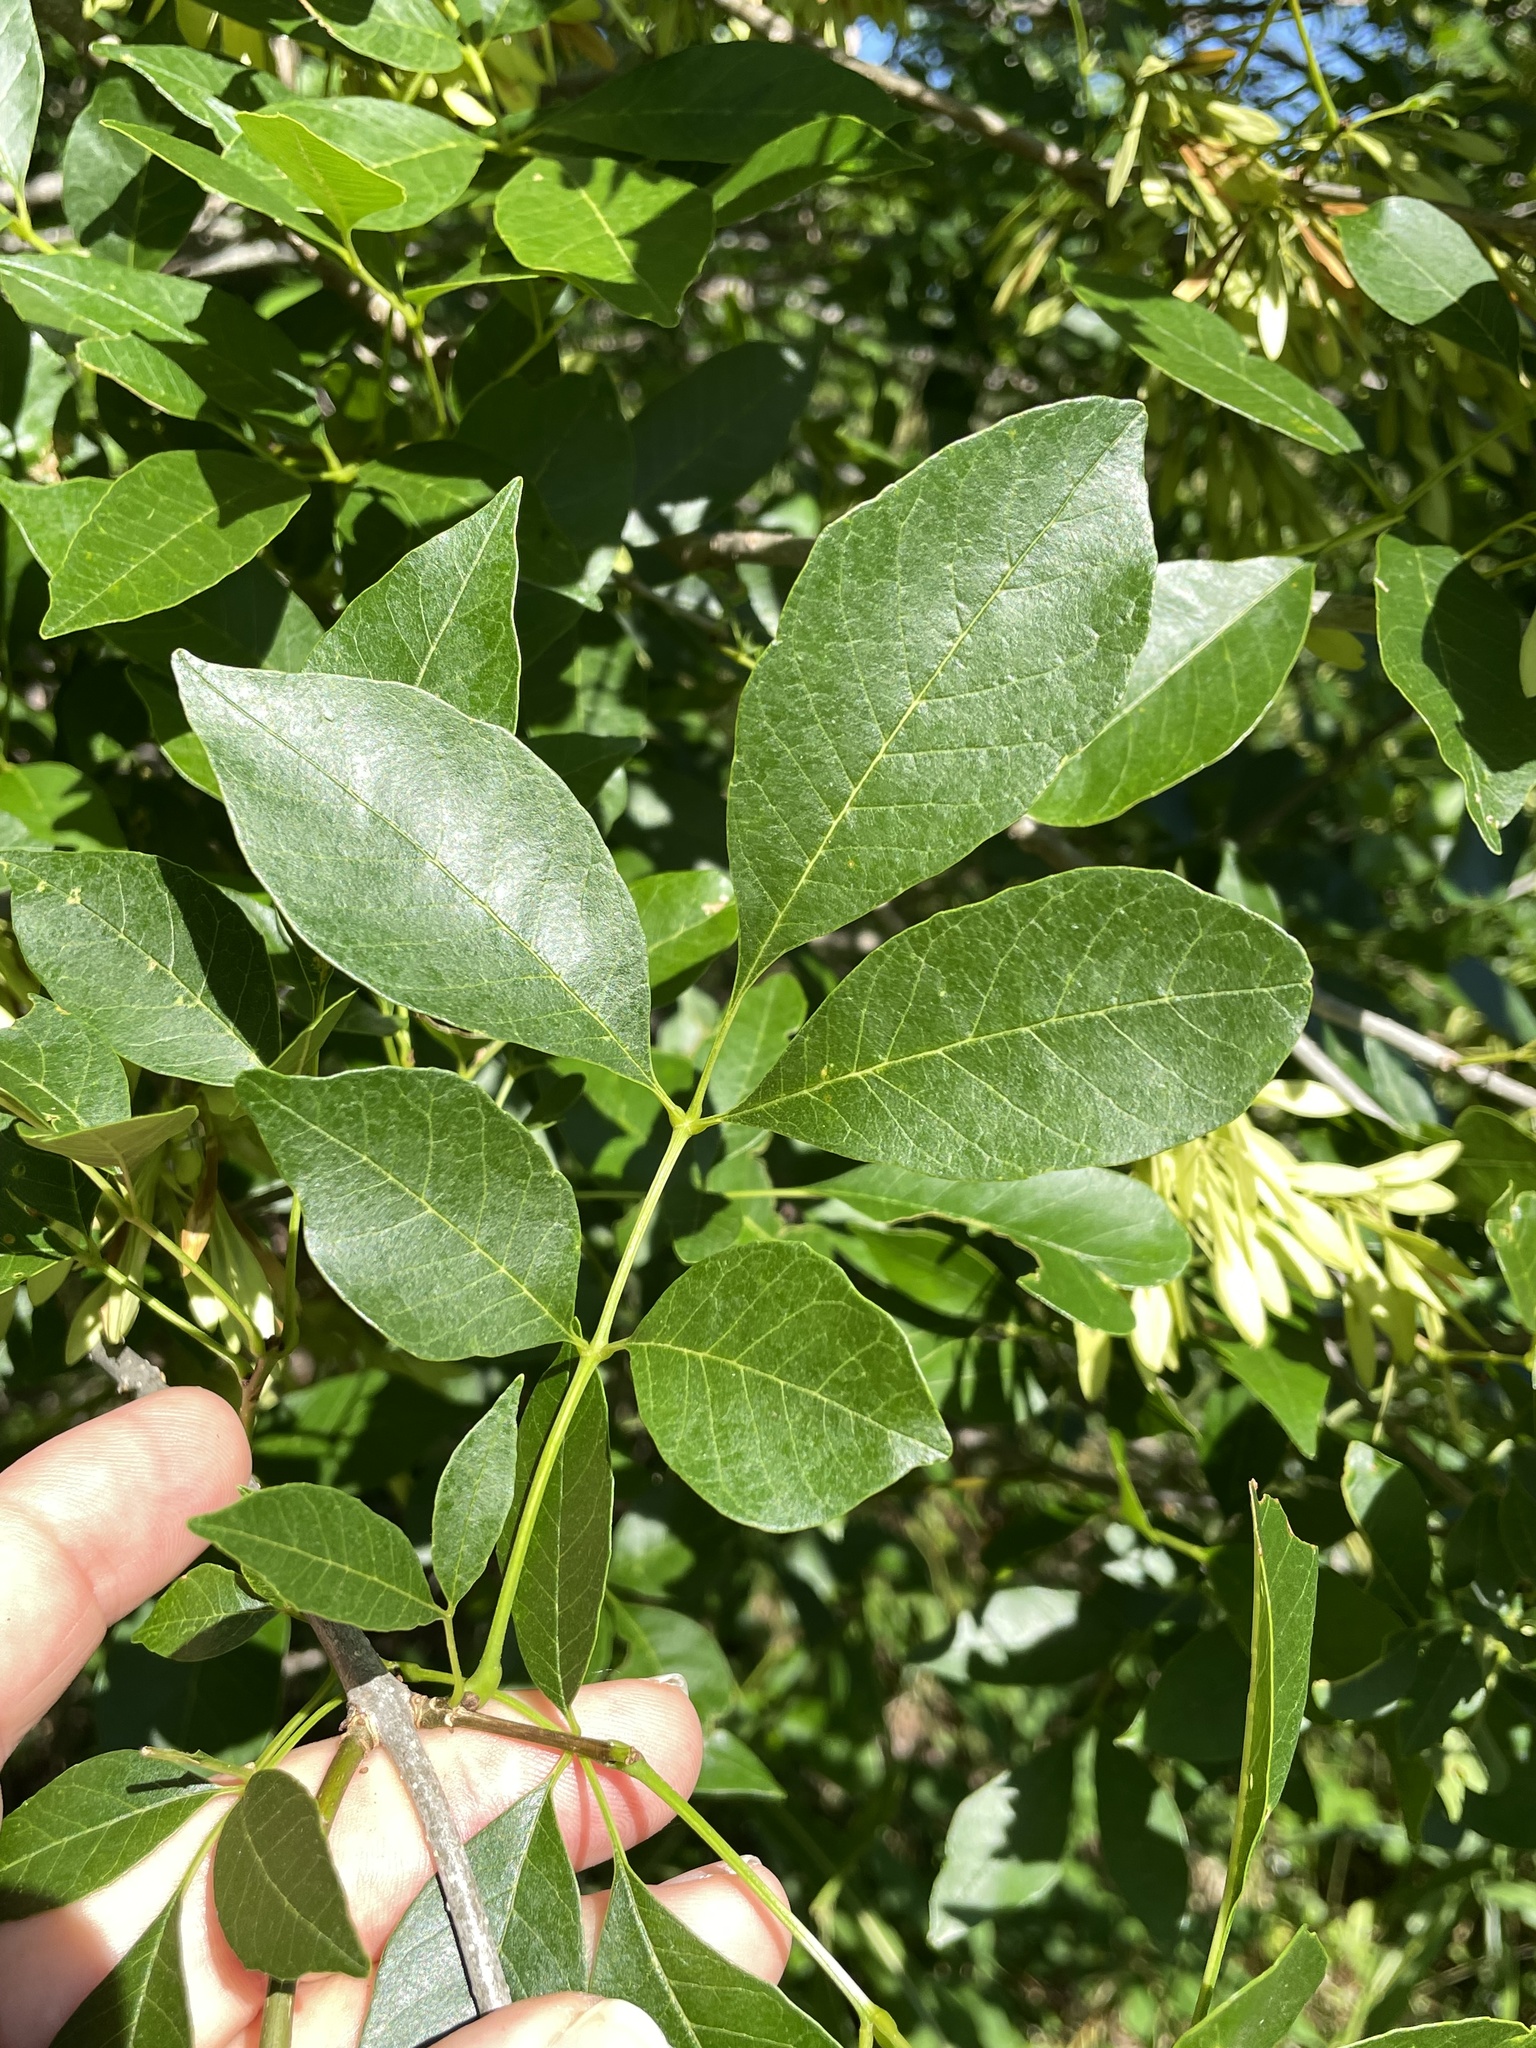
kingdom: Plantae
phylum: Tracheophyta
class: Magnoliopsida
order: Lamiales
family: Oleaceae
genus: Fraxinus
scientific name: Fraxinus berlandieriana
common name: Berlandier ash
